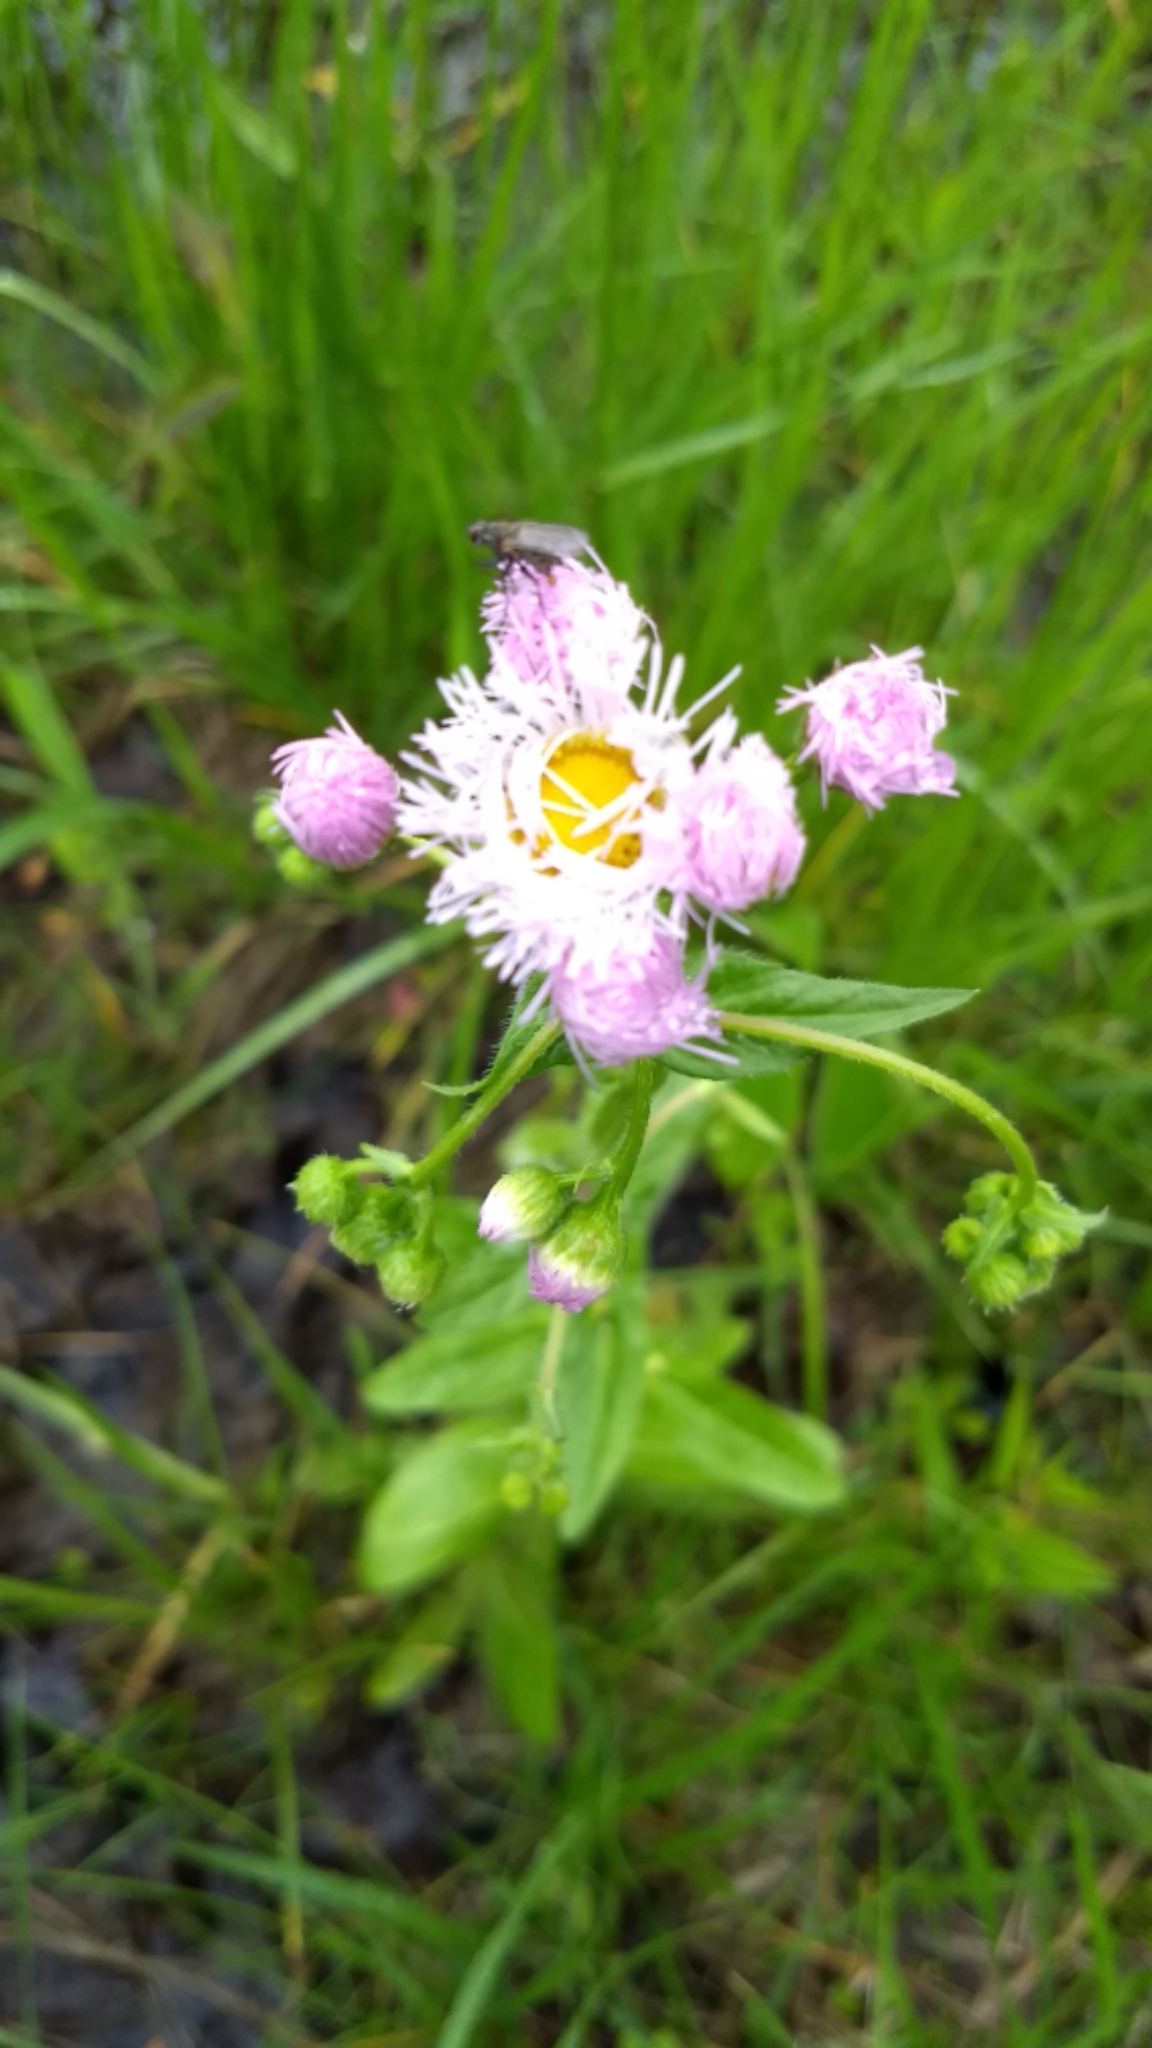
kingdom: Plantae
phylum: Tracheophyta
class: Magnoliopsida
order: Asterales
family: Asteraceae
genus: Erigeron
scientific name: Erigeron philadelphicus
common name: Robin's-plantain
